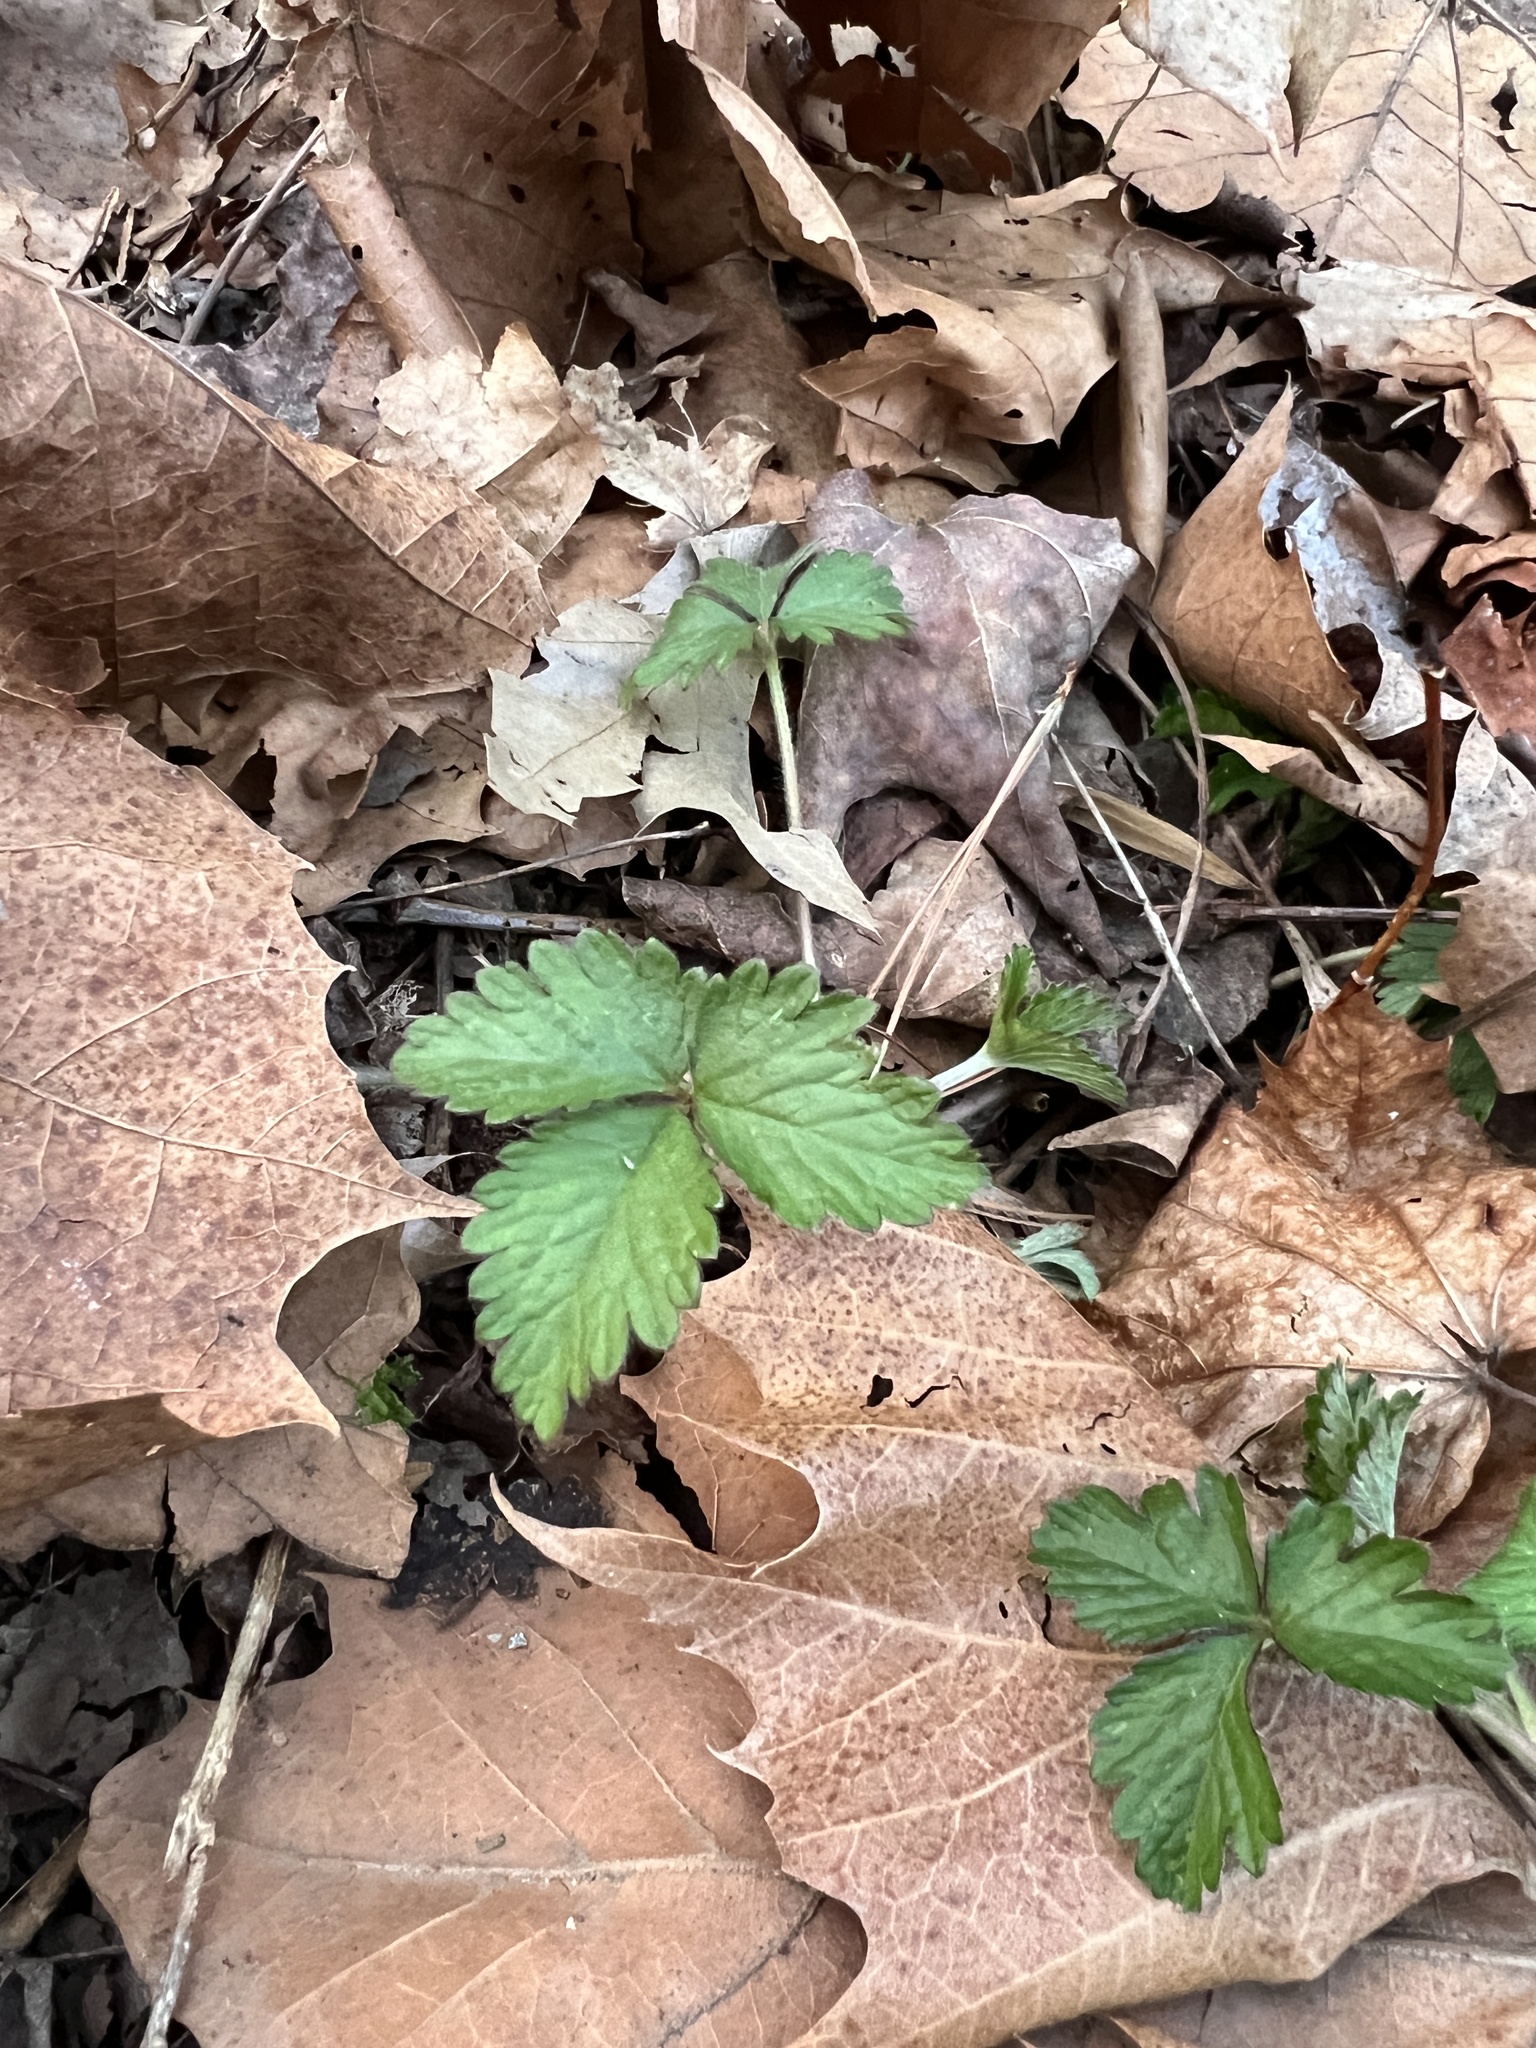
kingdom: Plantae
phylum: Tracheophyta
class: Magnoliopsida
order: Rosales
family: Rosaceae
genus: Potentilla
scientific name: Potentilla indica
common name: Yellow-flowered strawberry
